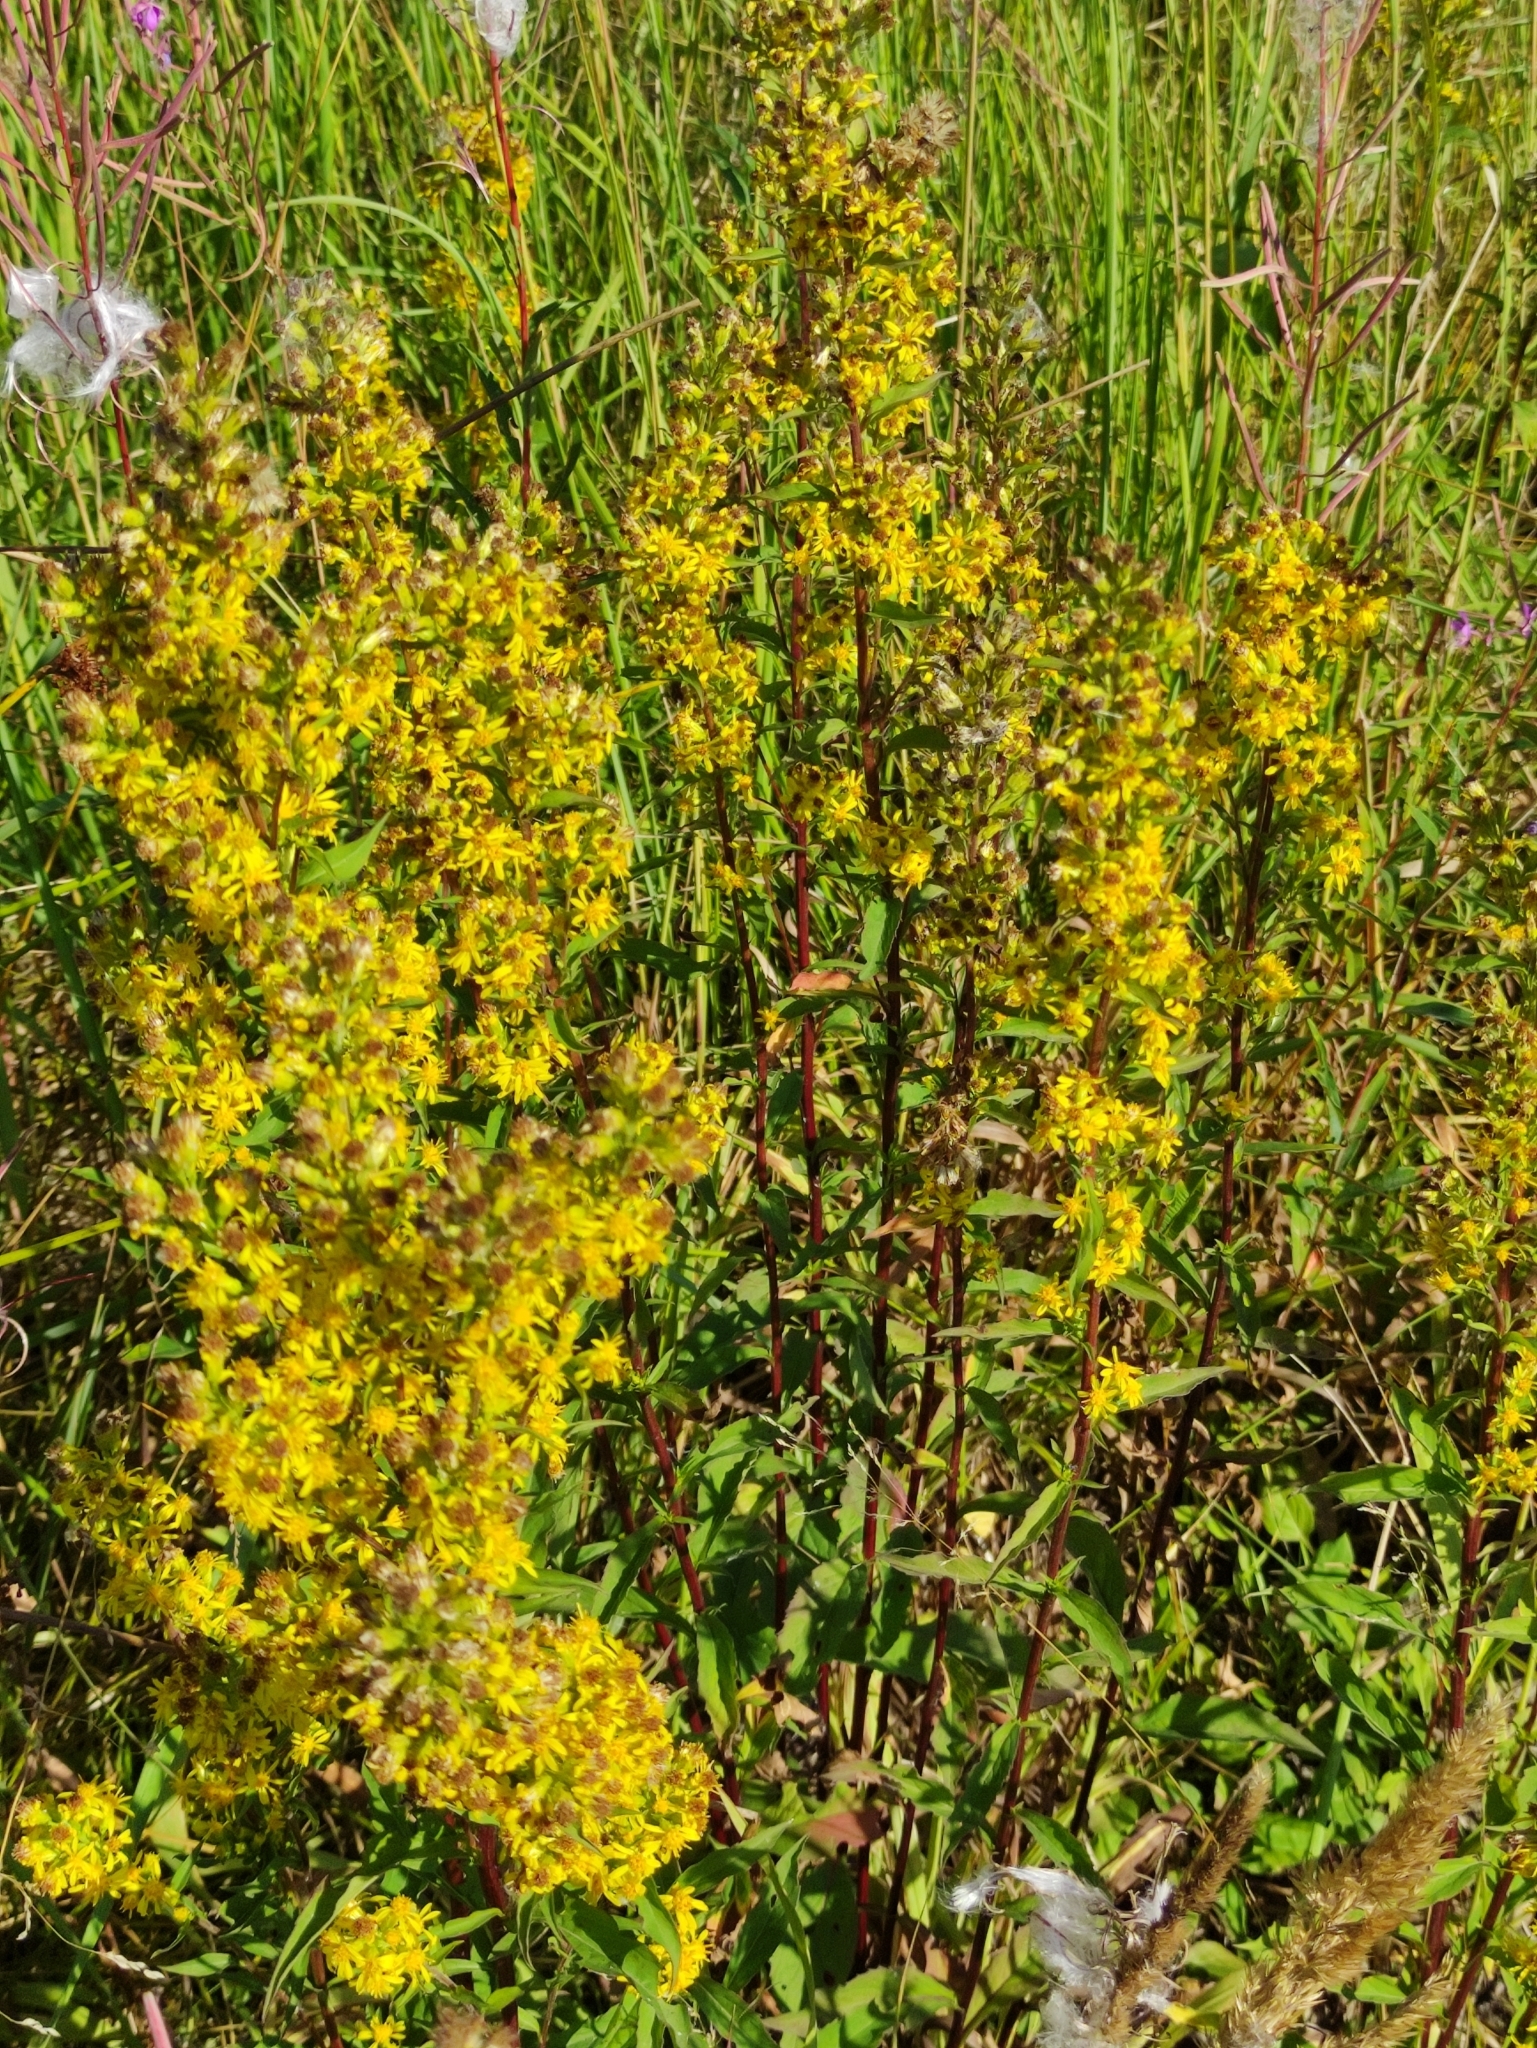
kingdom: Plantae
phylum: Tracheophyta
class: Magnoliopsida
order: Asterales
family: Asteraceae
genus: Solidago
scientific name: Solidago virgaurea
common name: Goldenrod
